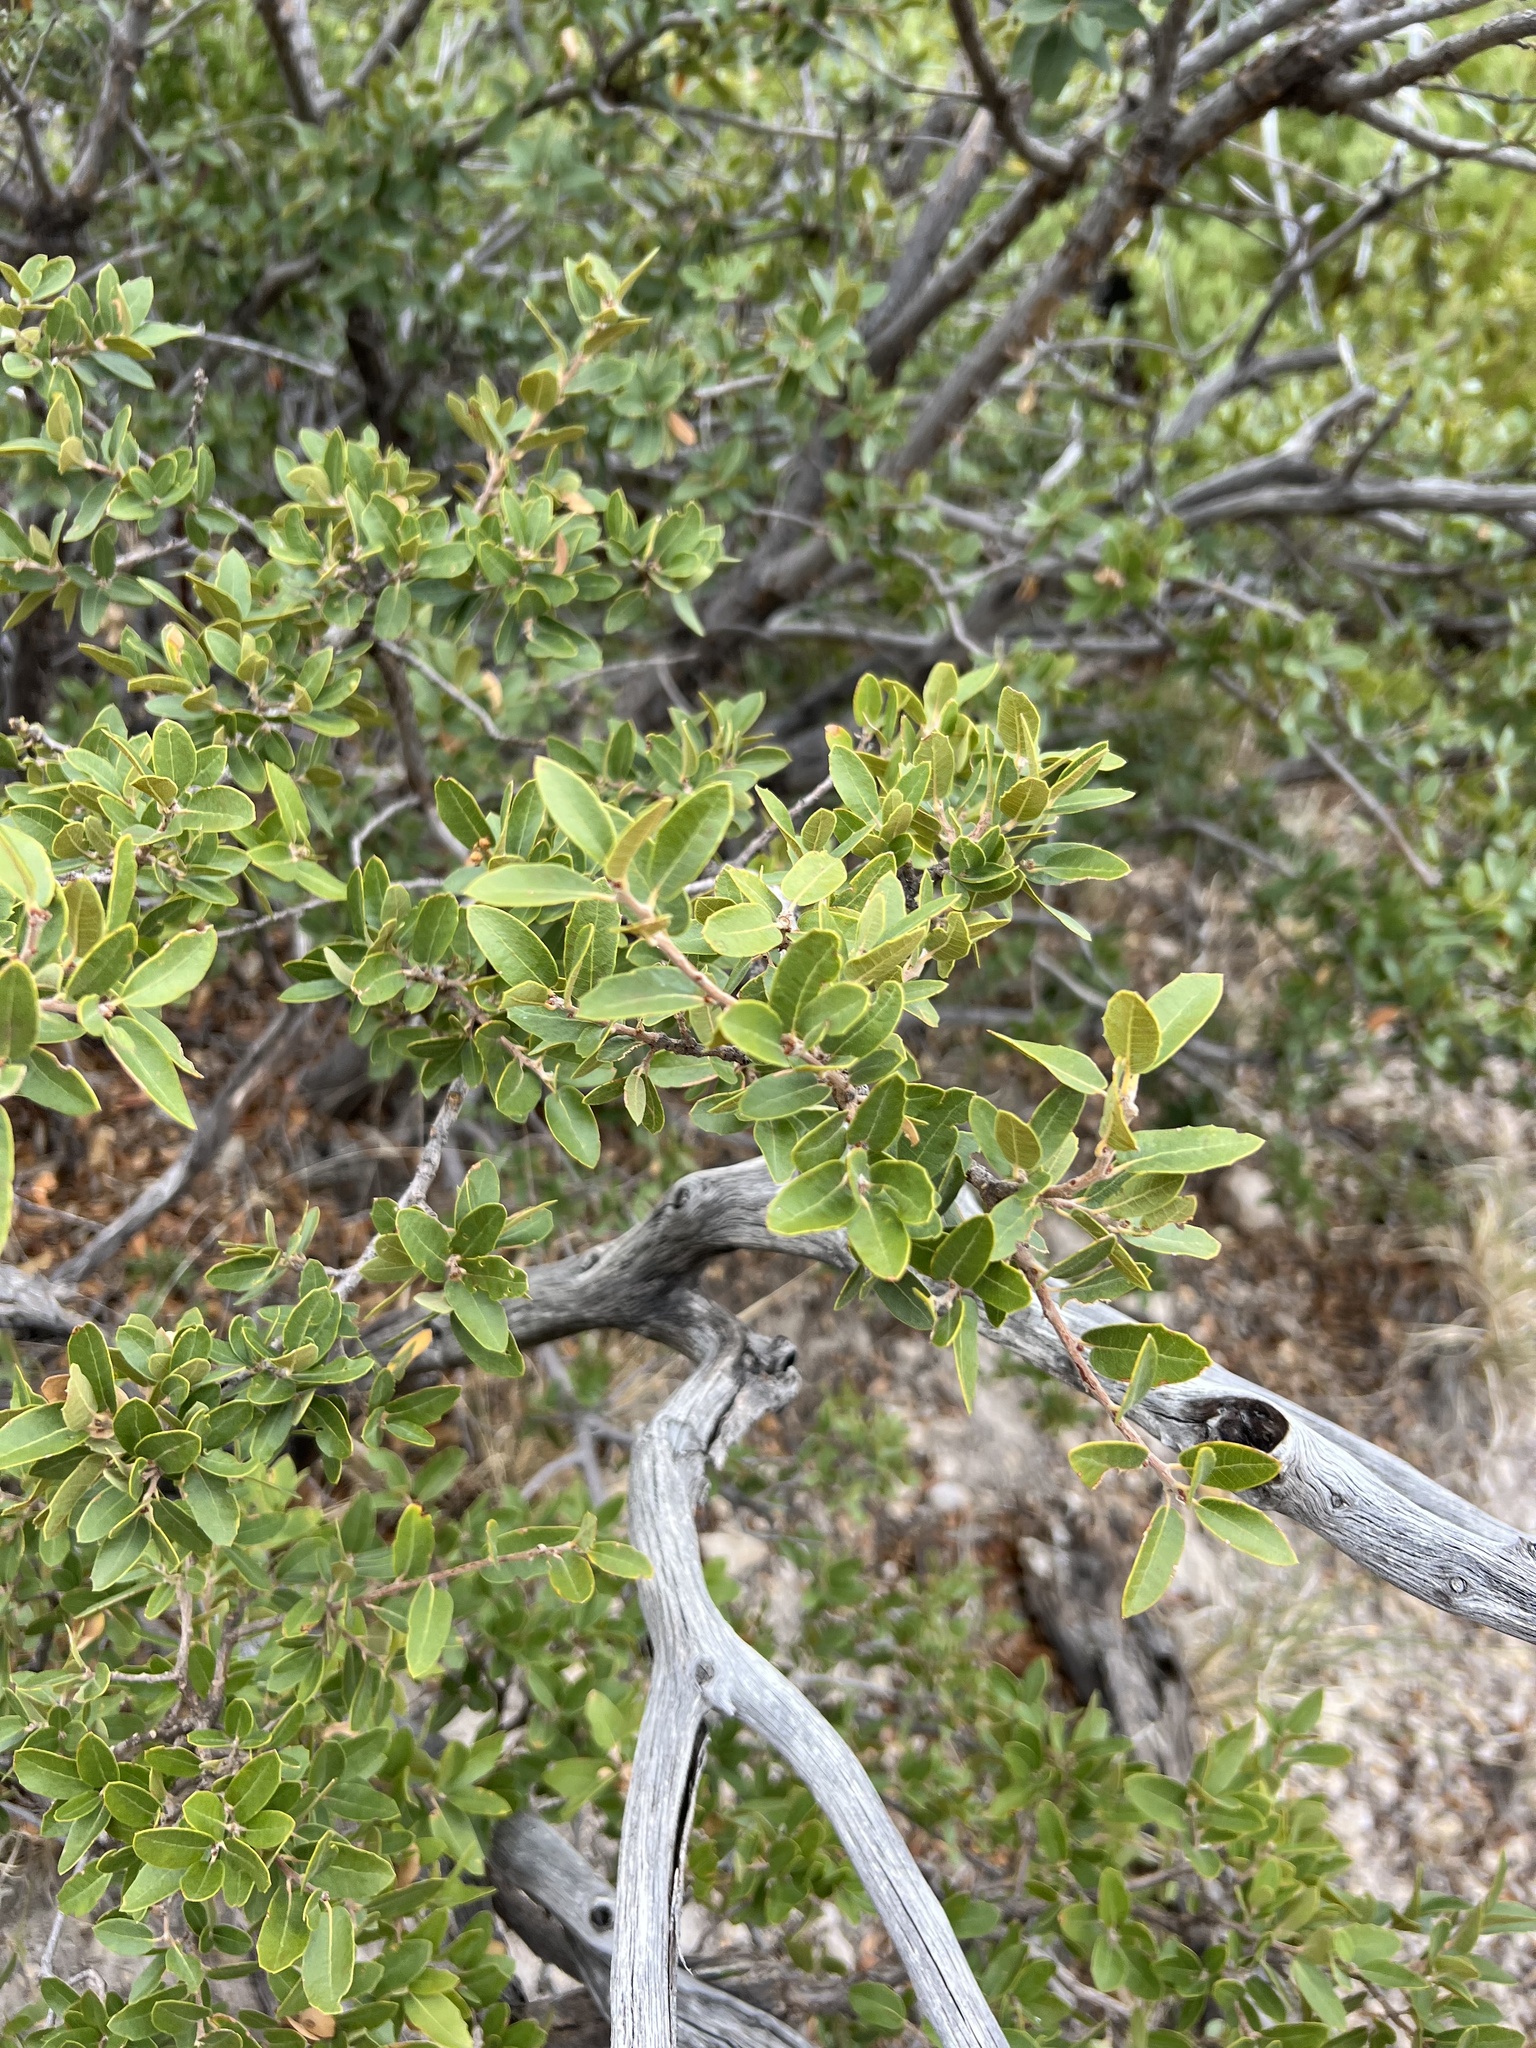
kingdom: Plantae
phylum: Tracheophyta
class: Magnoliopsida
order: Fagales
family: Fagaceae
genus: Quercus
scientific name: Quercus toumeyi
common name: Toumey oak
